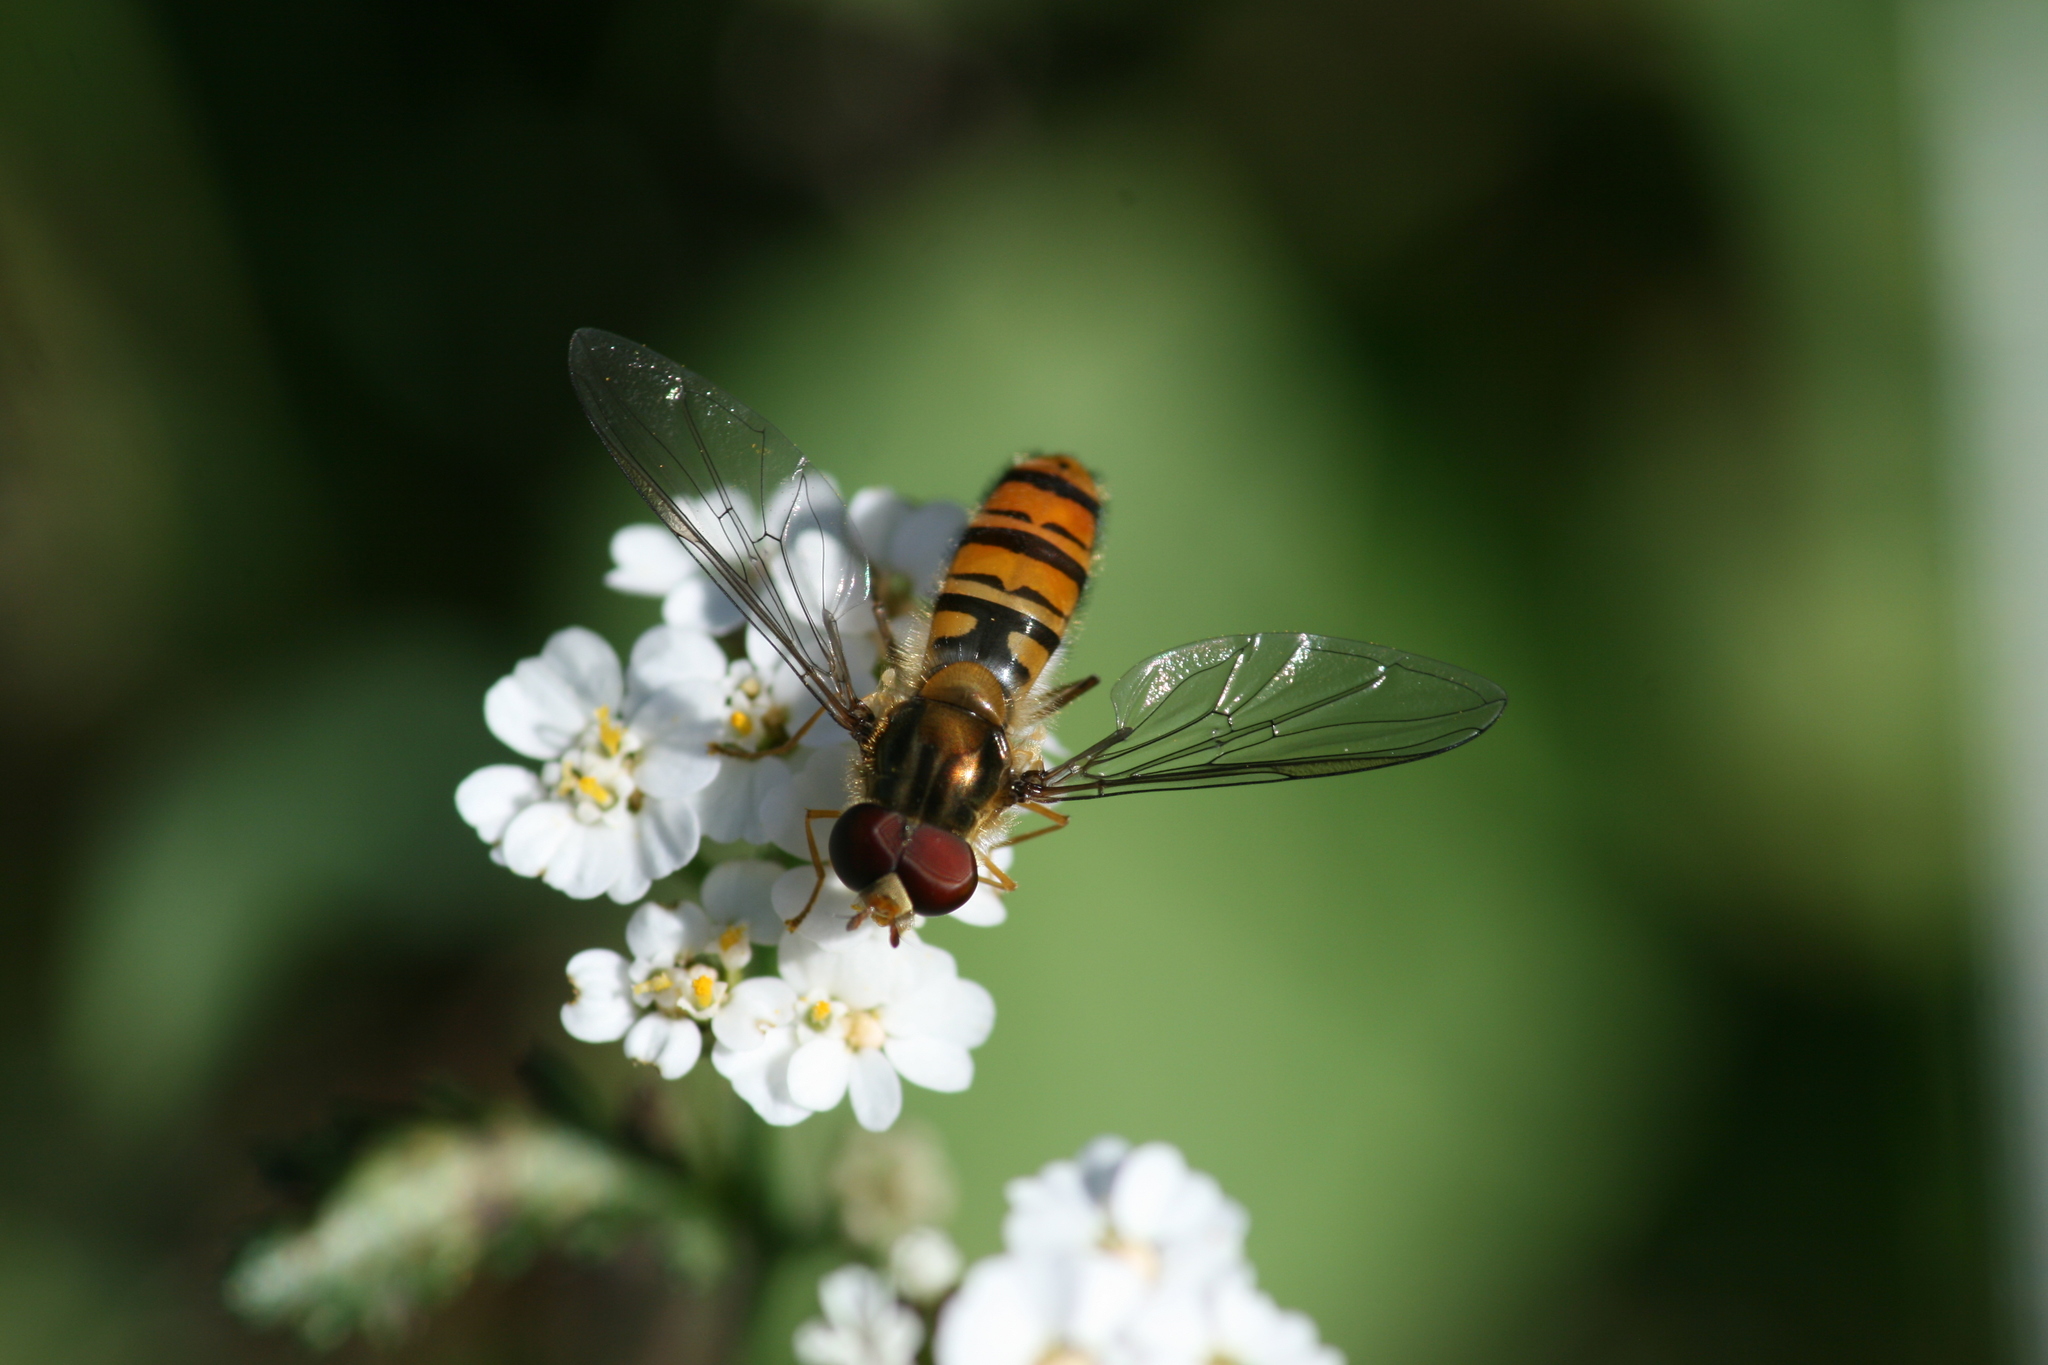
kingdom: Animalia
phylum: Arthropoda
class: Insecta
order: Diptera
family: Syrphidae
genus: Episyrphus
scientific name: Episyrphus balteatus
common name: Marmalade hoverfly
